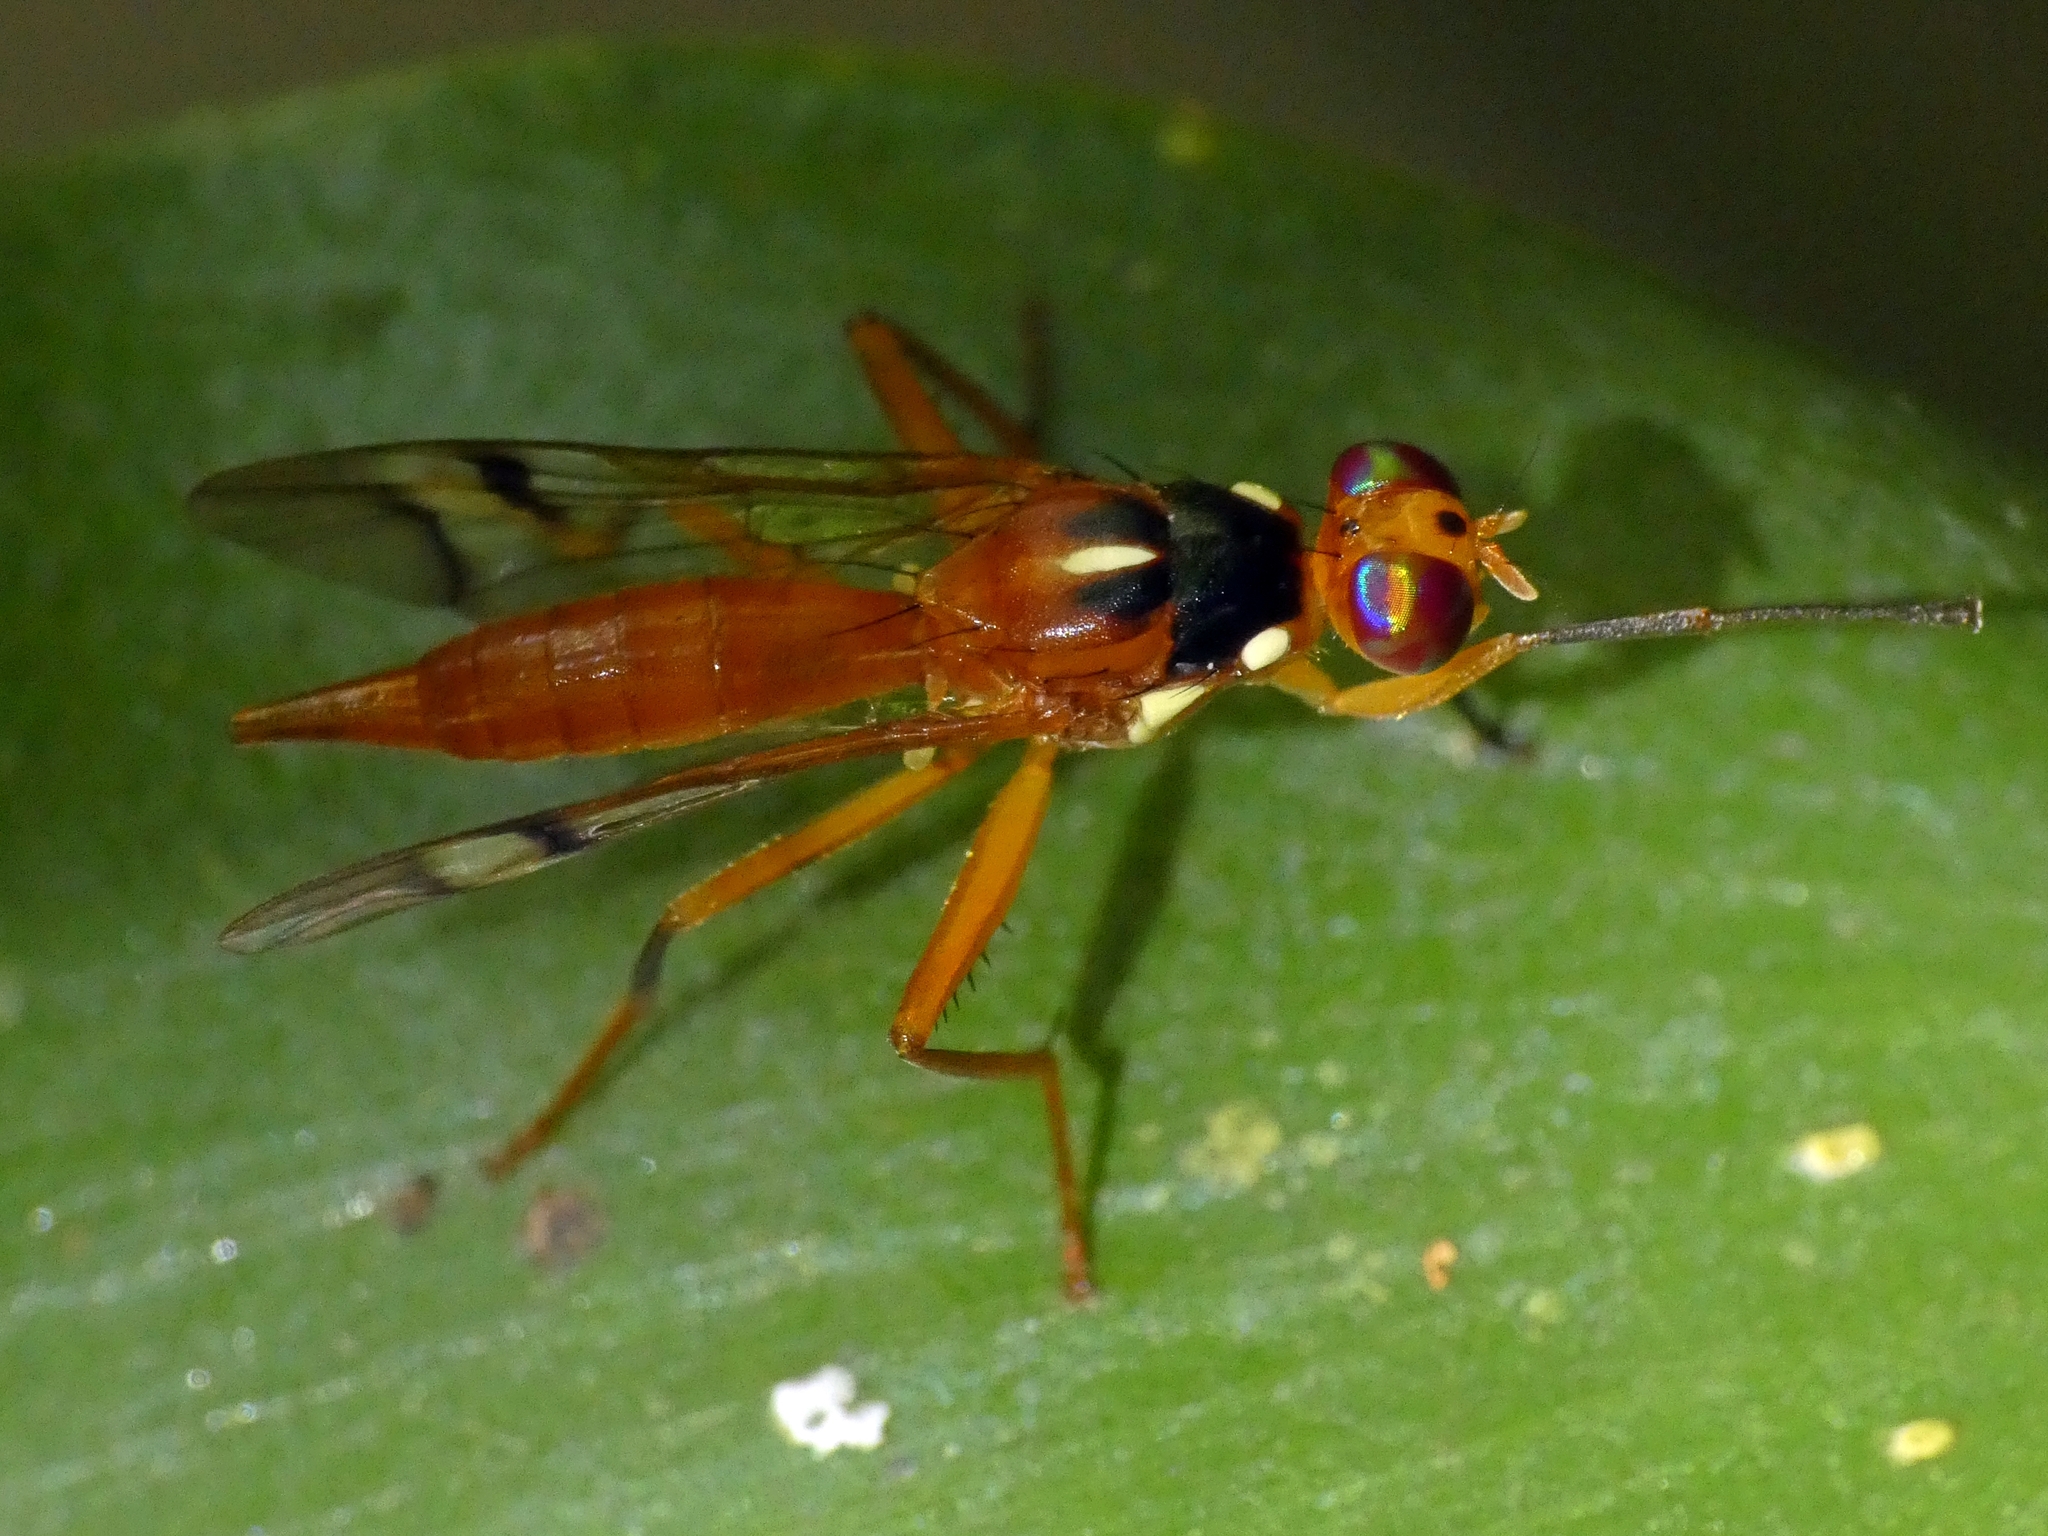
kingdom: Animalia
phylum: Arthropoda
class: Insecta
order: Diptera
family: Tephritidae
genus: Adrama
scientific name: Adrama selecta
